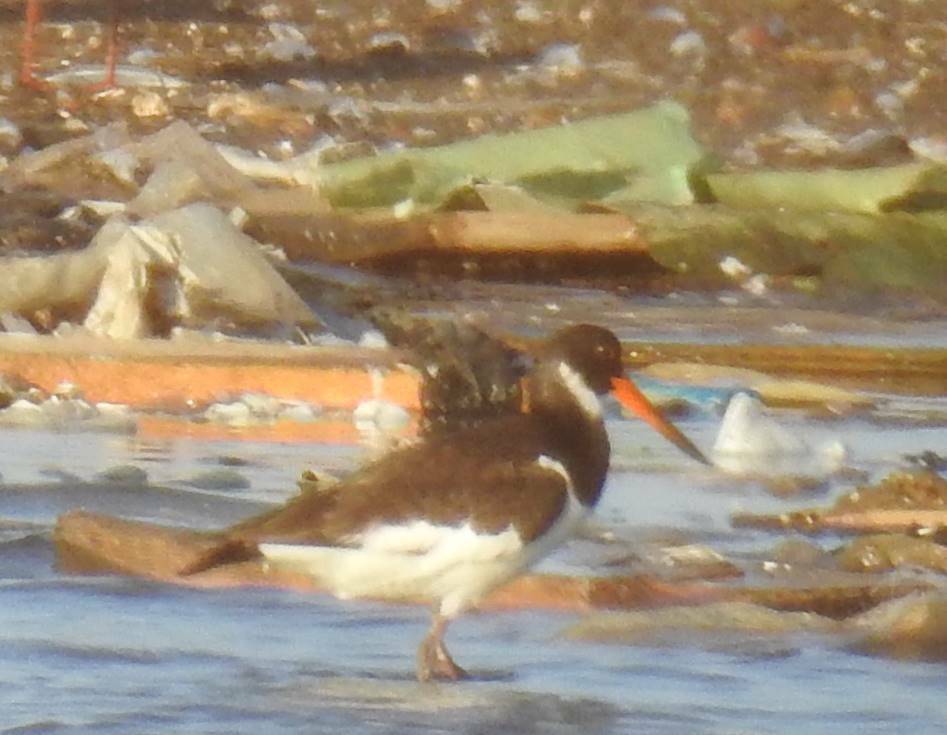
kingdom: Animalia
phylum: Chordata
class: Aves
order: Charadriiformes
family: Haematopodidae
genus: Haematopus
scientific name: Haematopus ostralegus
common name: Eurasian oystercatcher
